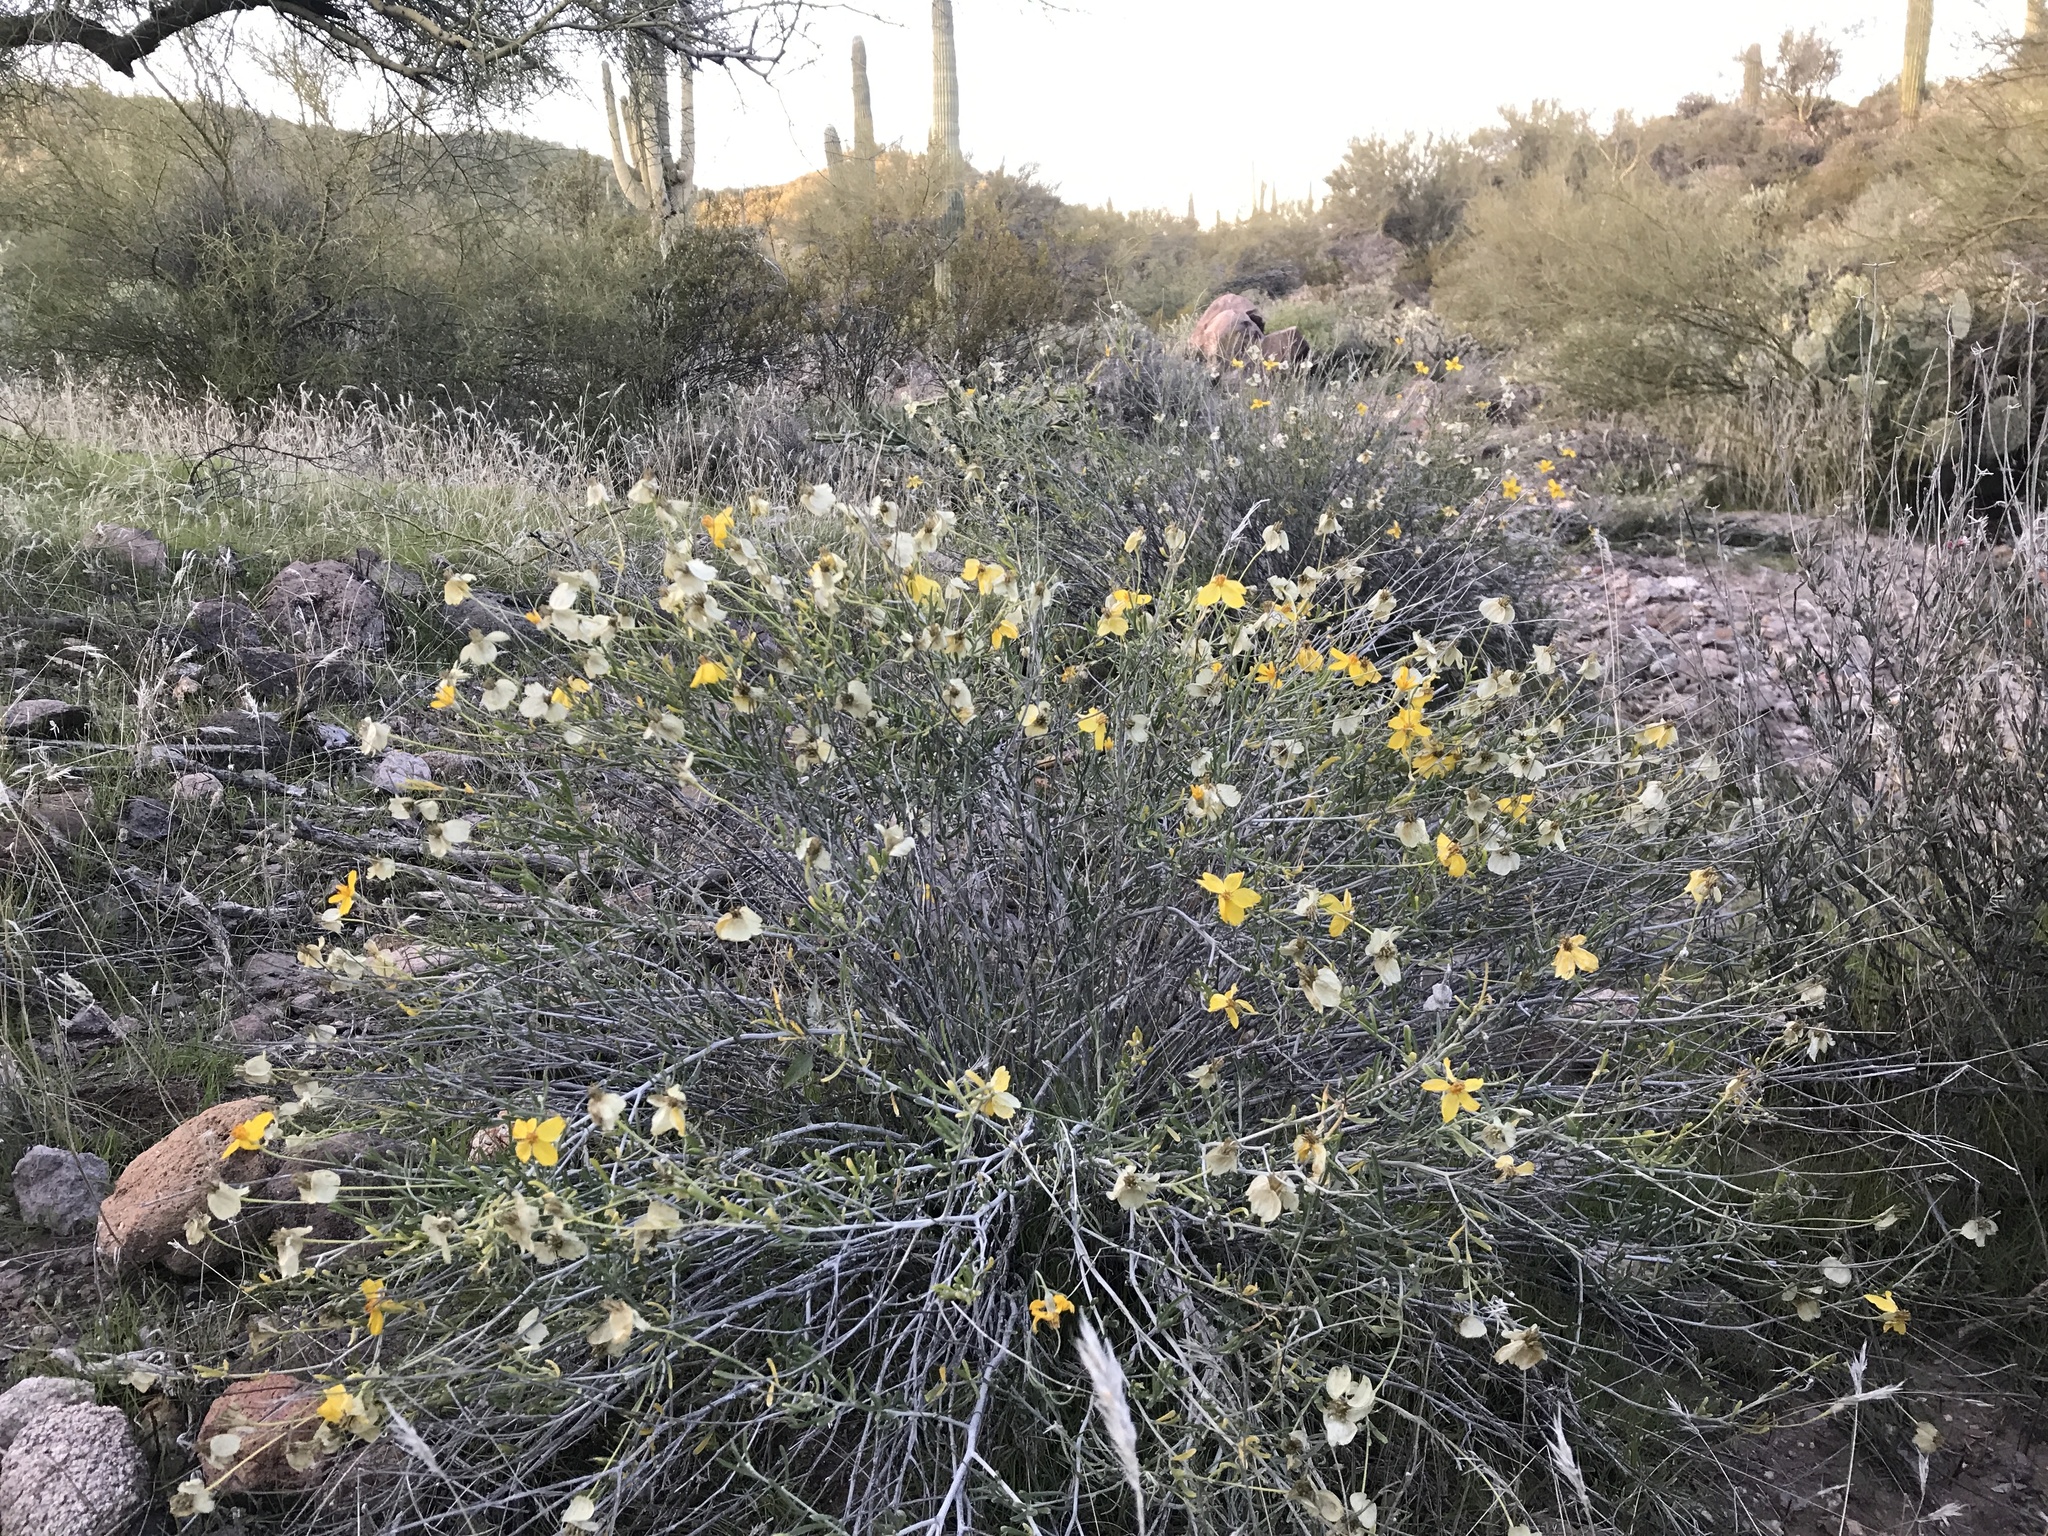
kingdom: Plantae
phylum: Tracheophyta
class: Magnoliopsida
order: Asterales
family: Asteraceae
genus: Psilostrophe
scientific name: Psilostrophe cooperi
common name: White-stem paper-flower
